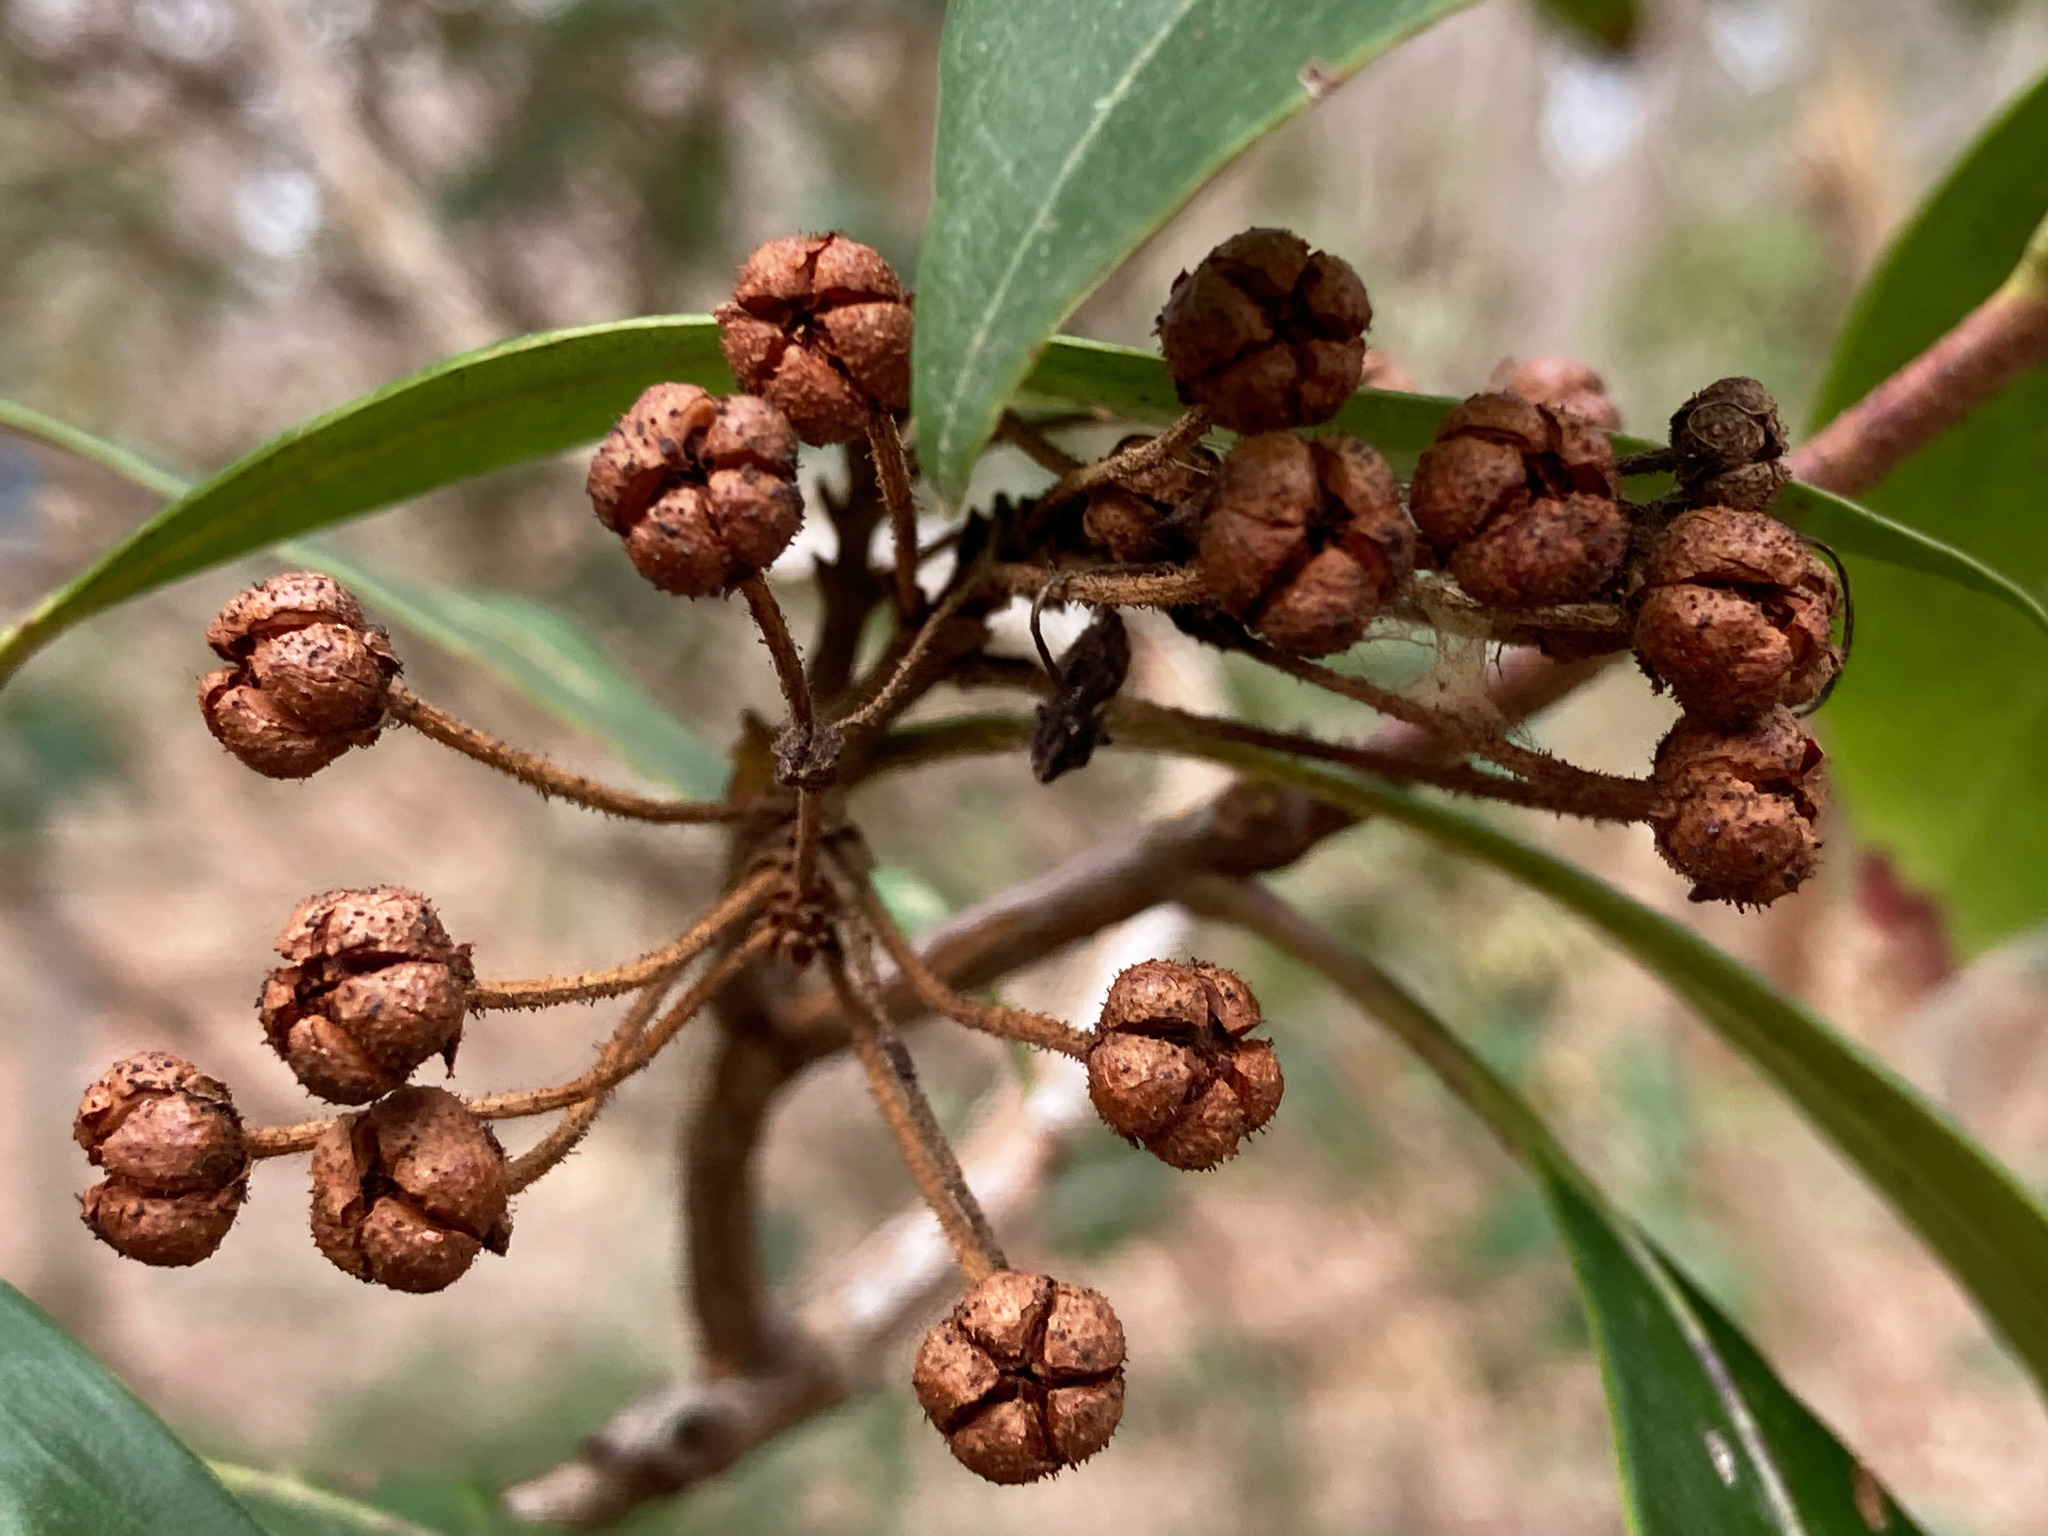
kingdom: Plantae
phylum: Tracheophyta
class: Magnoliopsida
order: Ericales
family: Ericaceae
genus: Kalmia
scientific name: Kalmia latifolia
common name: Mountain-laurel
